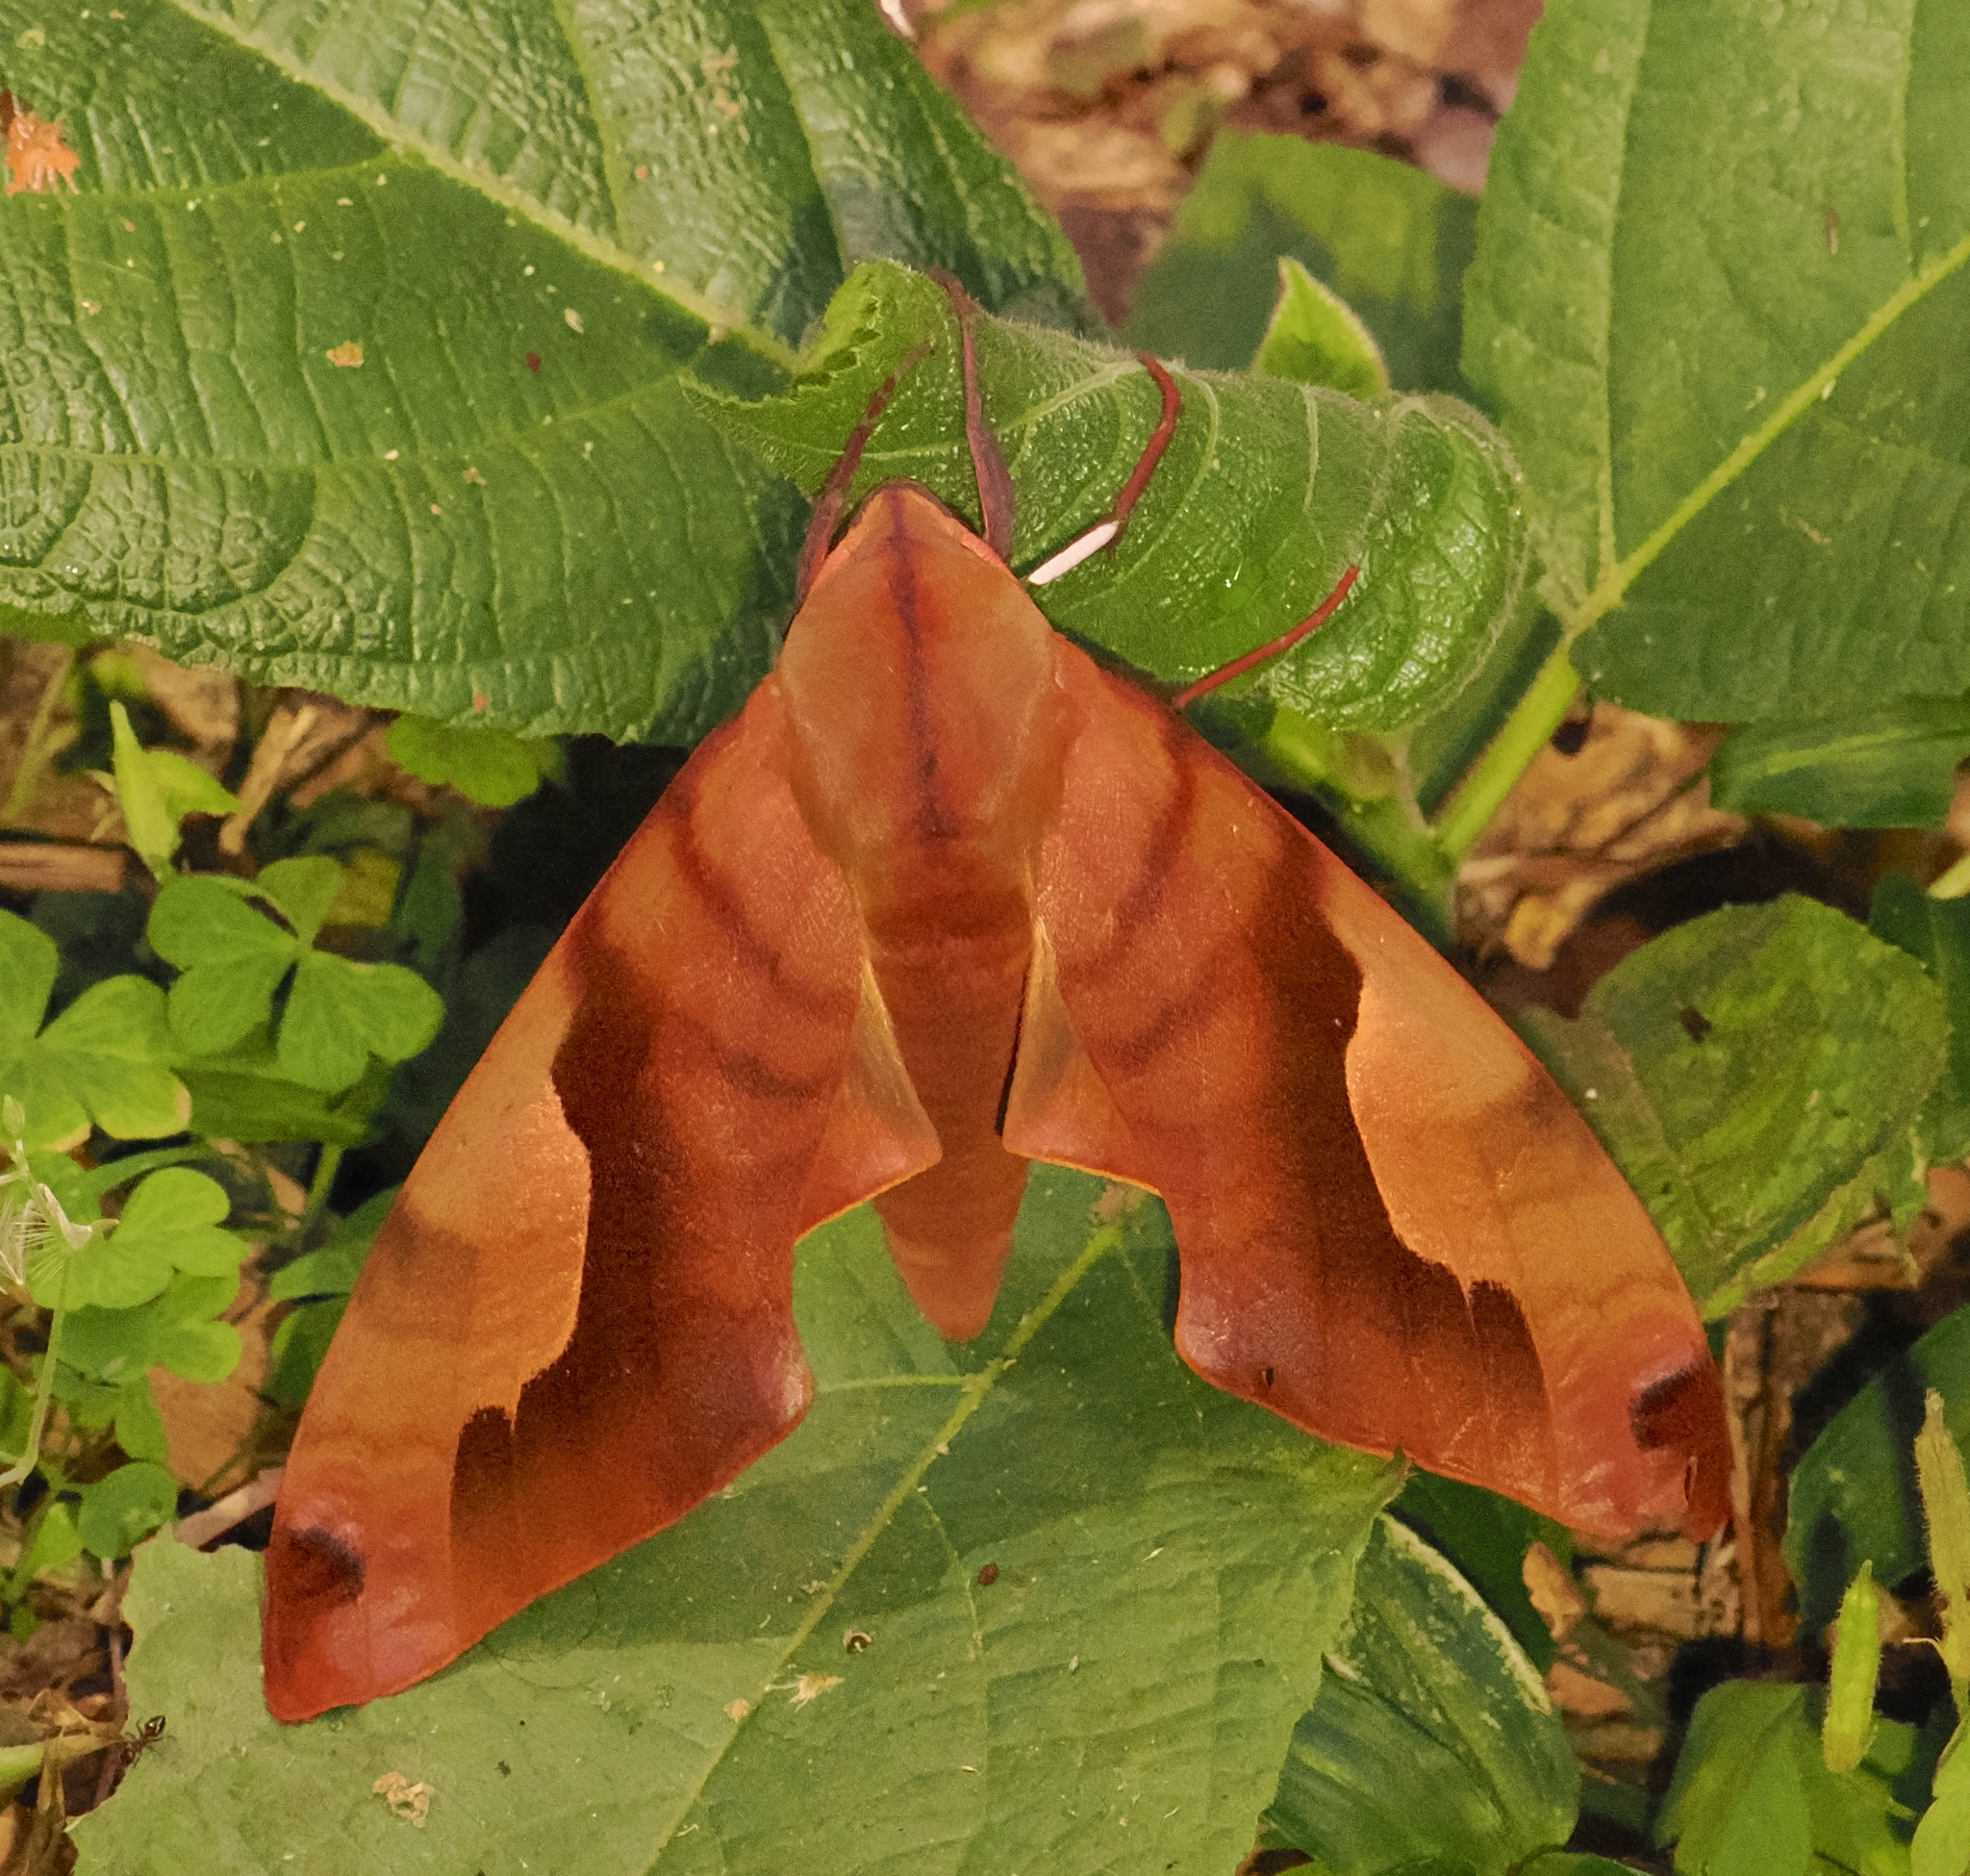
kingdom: Animalia
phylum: Arthropoda
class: Insecta
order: Lepidoptera
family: Sphingidae
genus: Clanis
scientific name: Clanis titan
